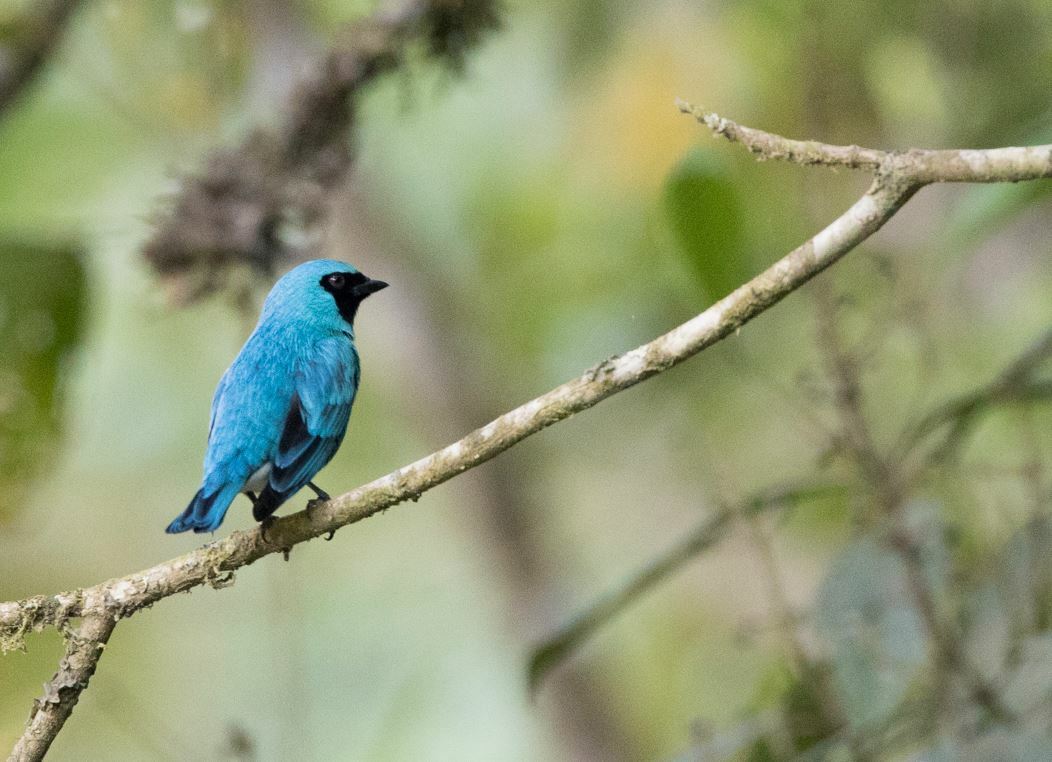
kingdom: Animalia
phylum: Chordata
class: Aves
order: Passeriformes
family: Thraupidae
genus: Tersina
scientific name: Tersina viridis
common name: Swallow tanager
